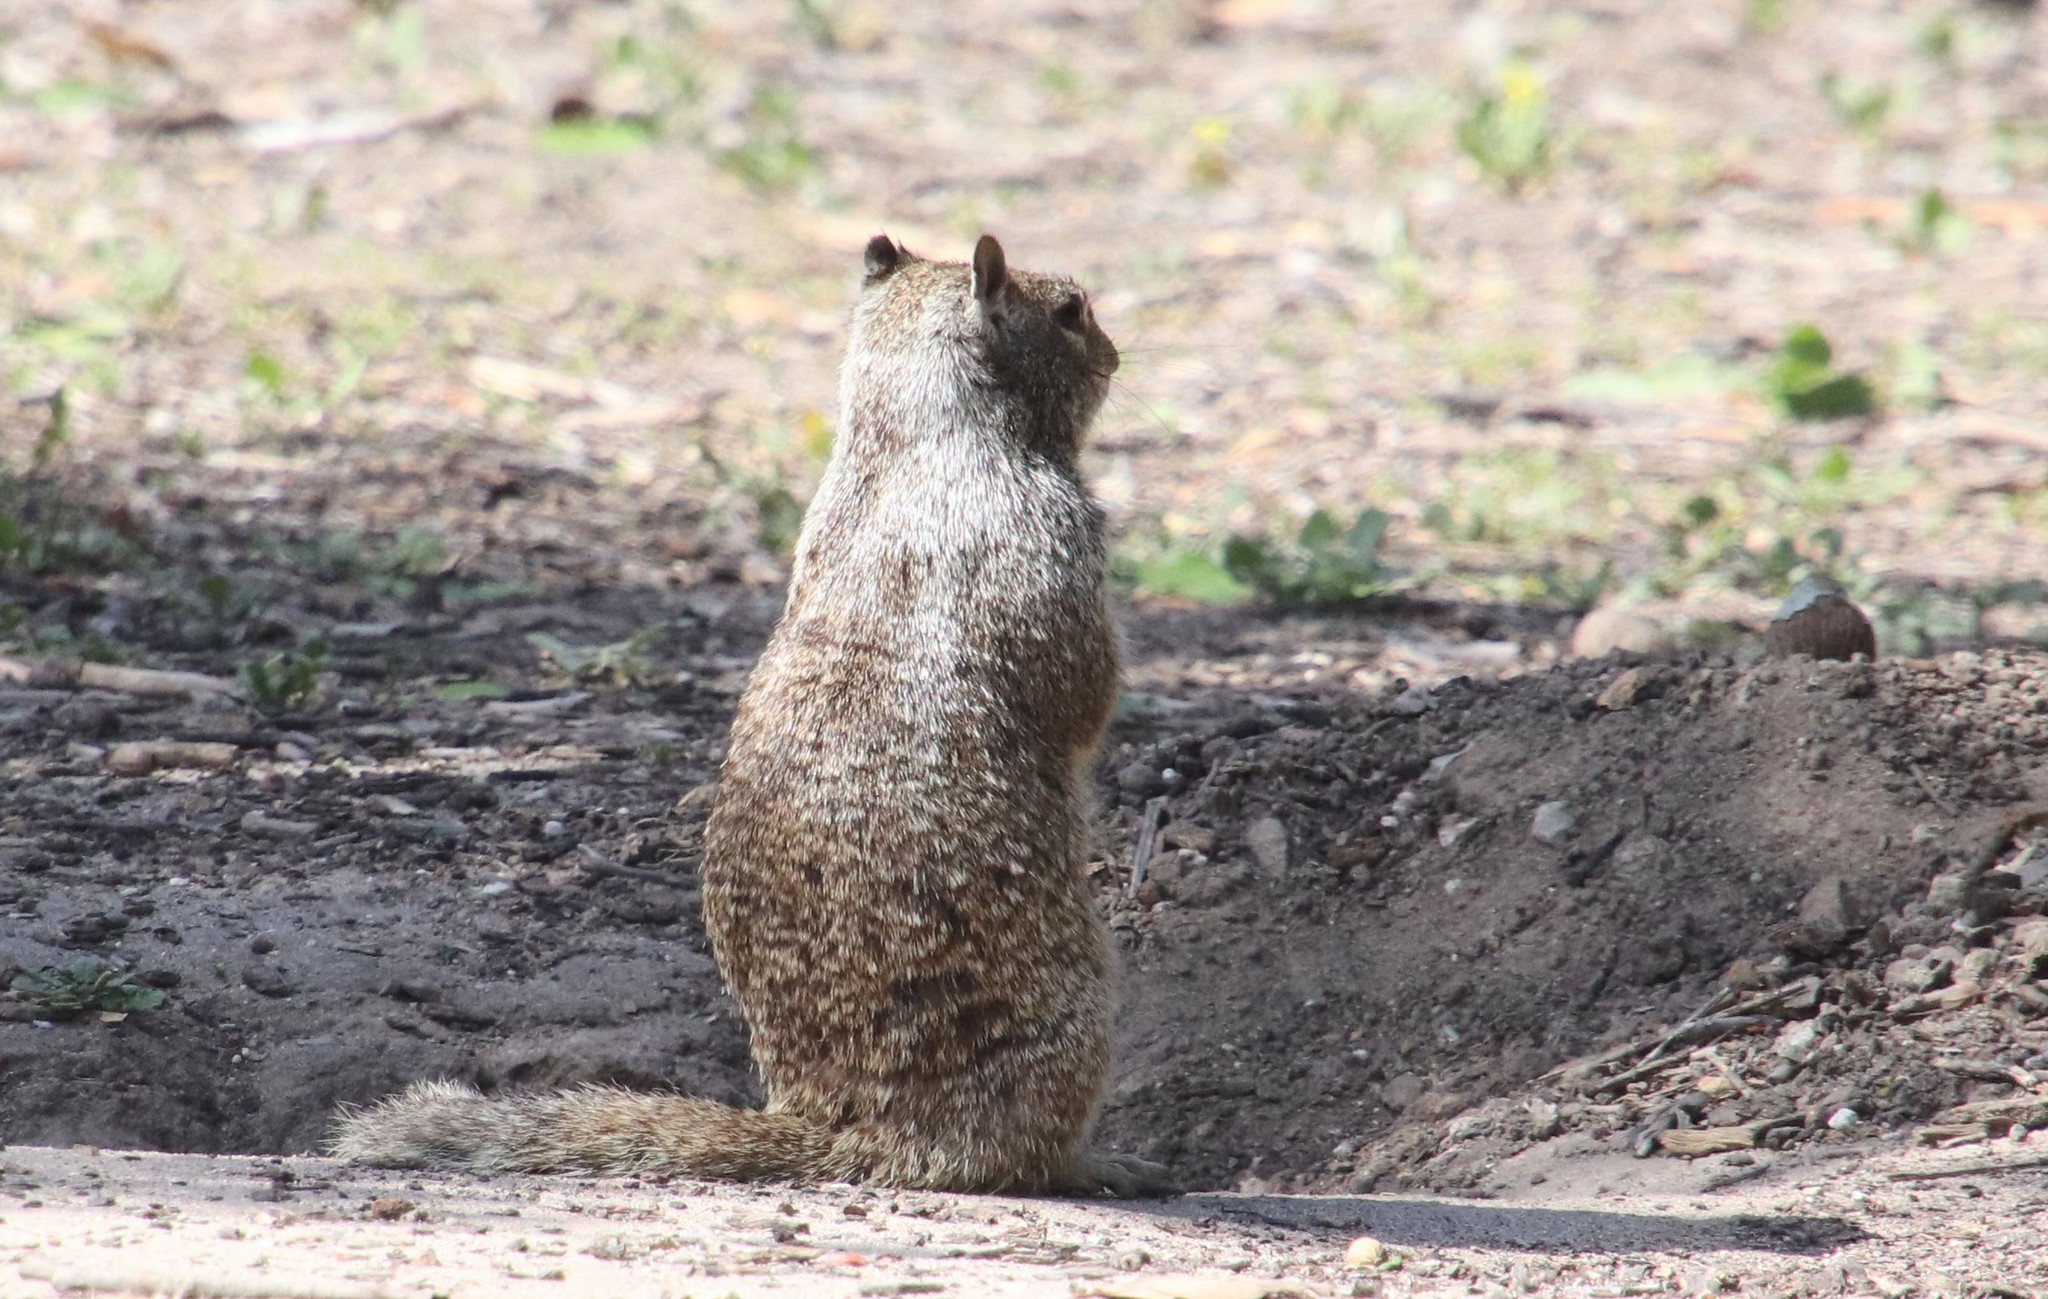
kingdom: Animalia
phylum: Chordata
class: Mammalia
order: Rodentia
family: Sciuridae
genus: Otospermophilus
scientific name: Otospermophilus beecheyi
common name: California ground squirrel
